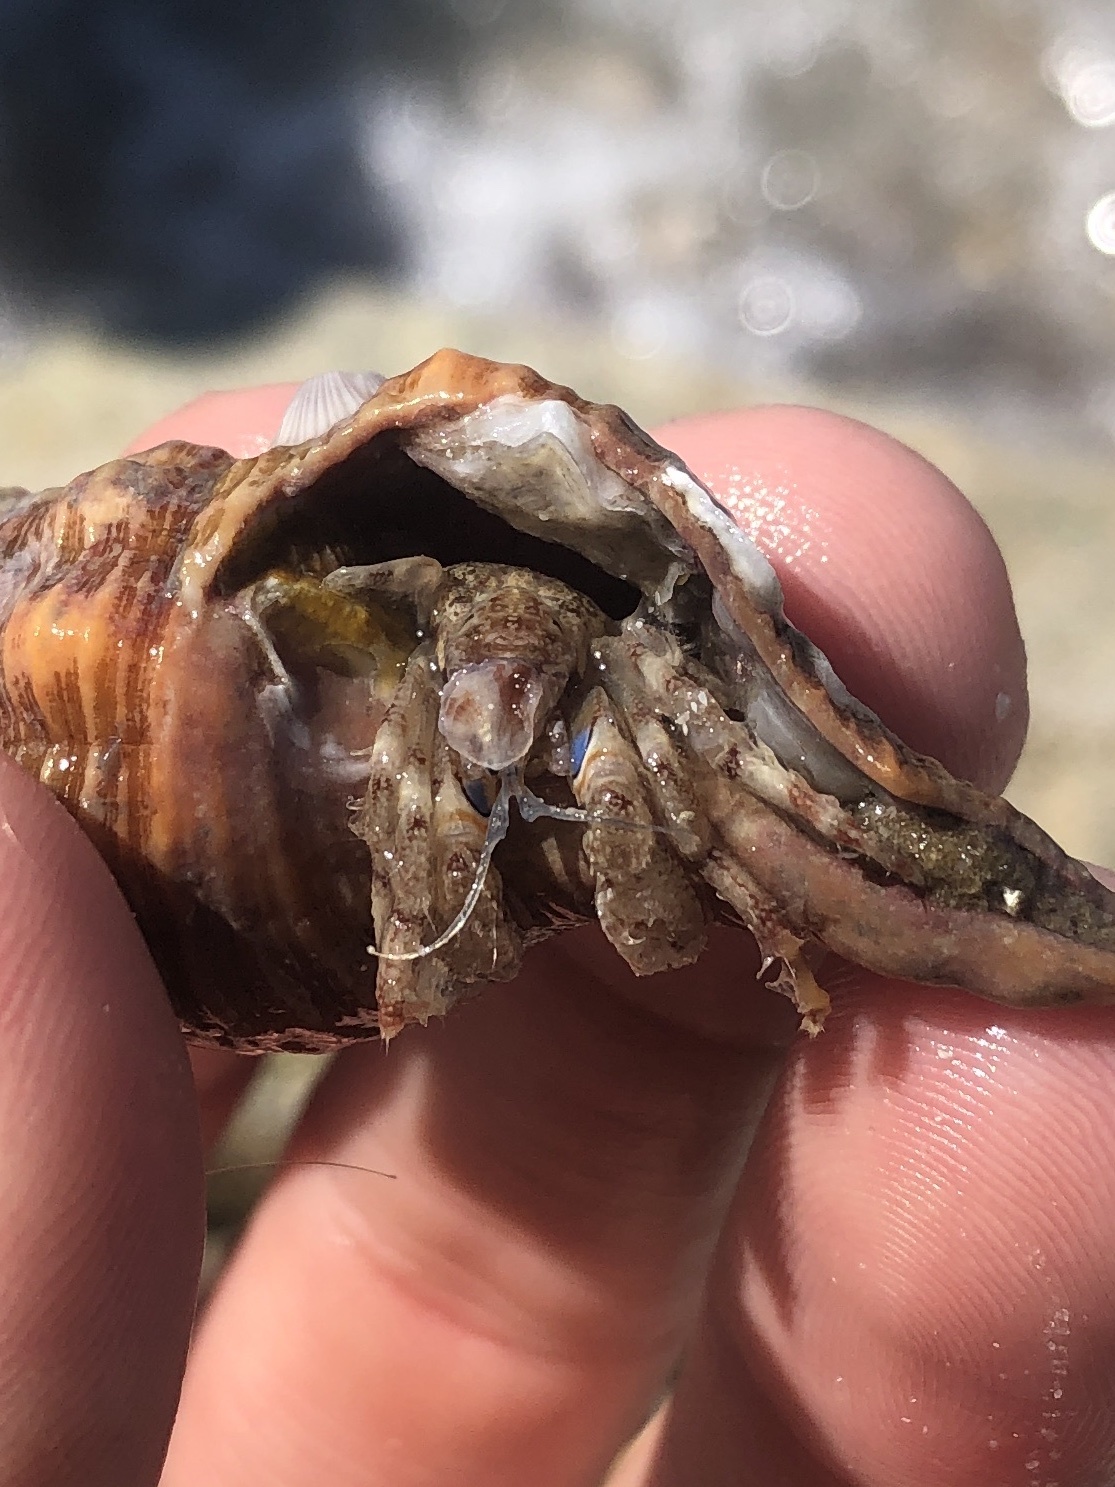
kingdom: Animalia
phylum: Arthropoda
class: Malacostraca
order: Decapoda
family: Diogenidae
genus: Areopaguristes
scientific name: Areopaguristes hummi
